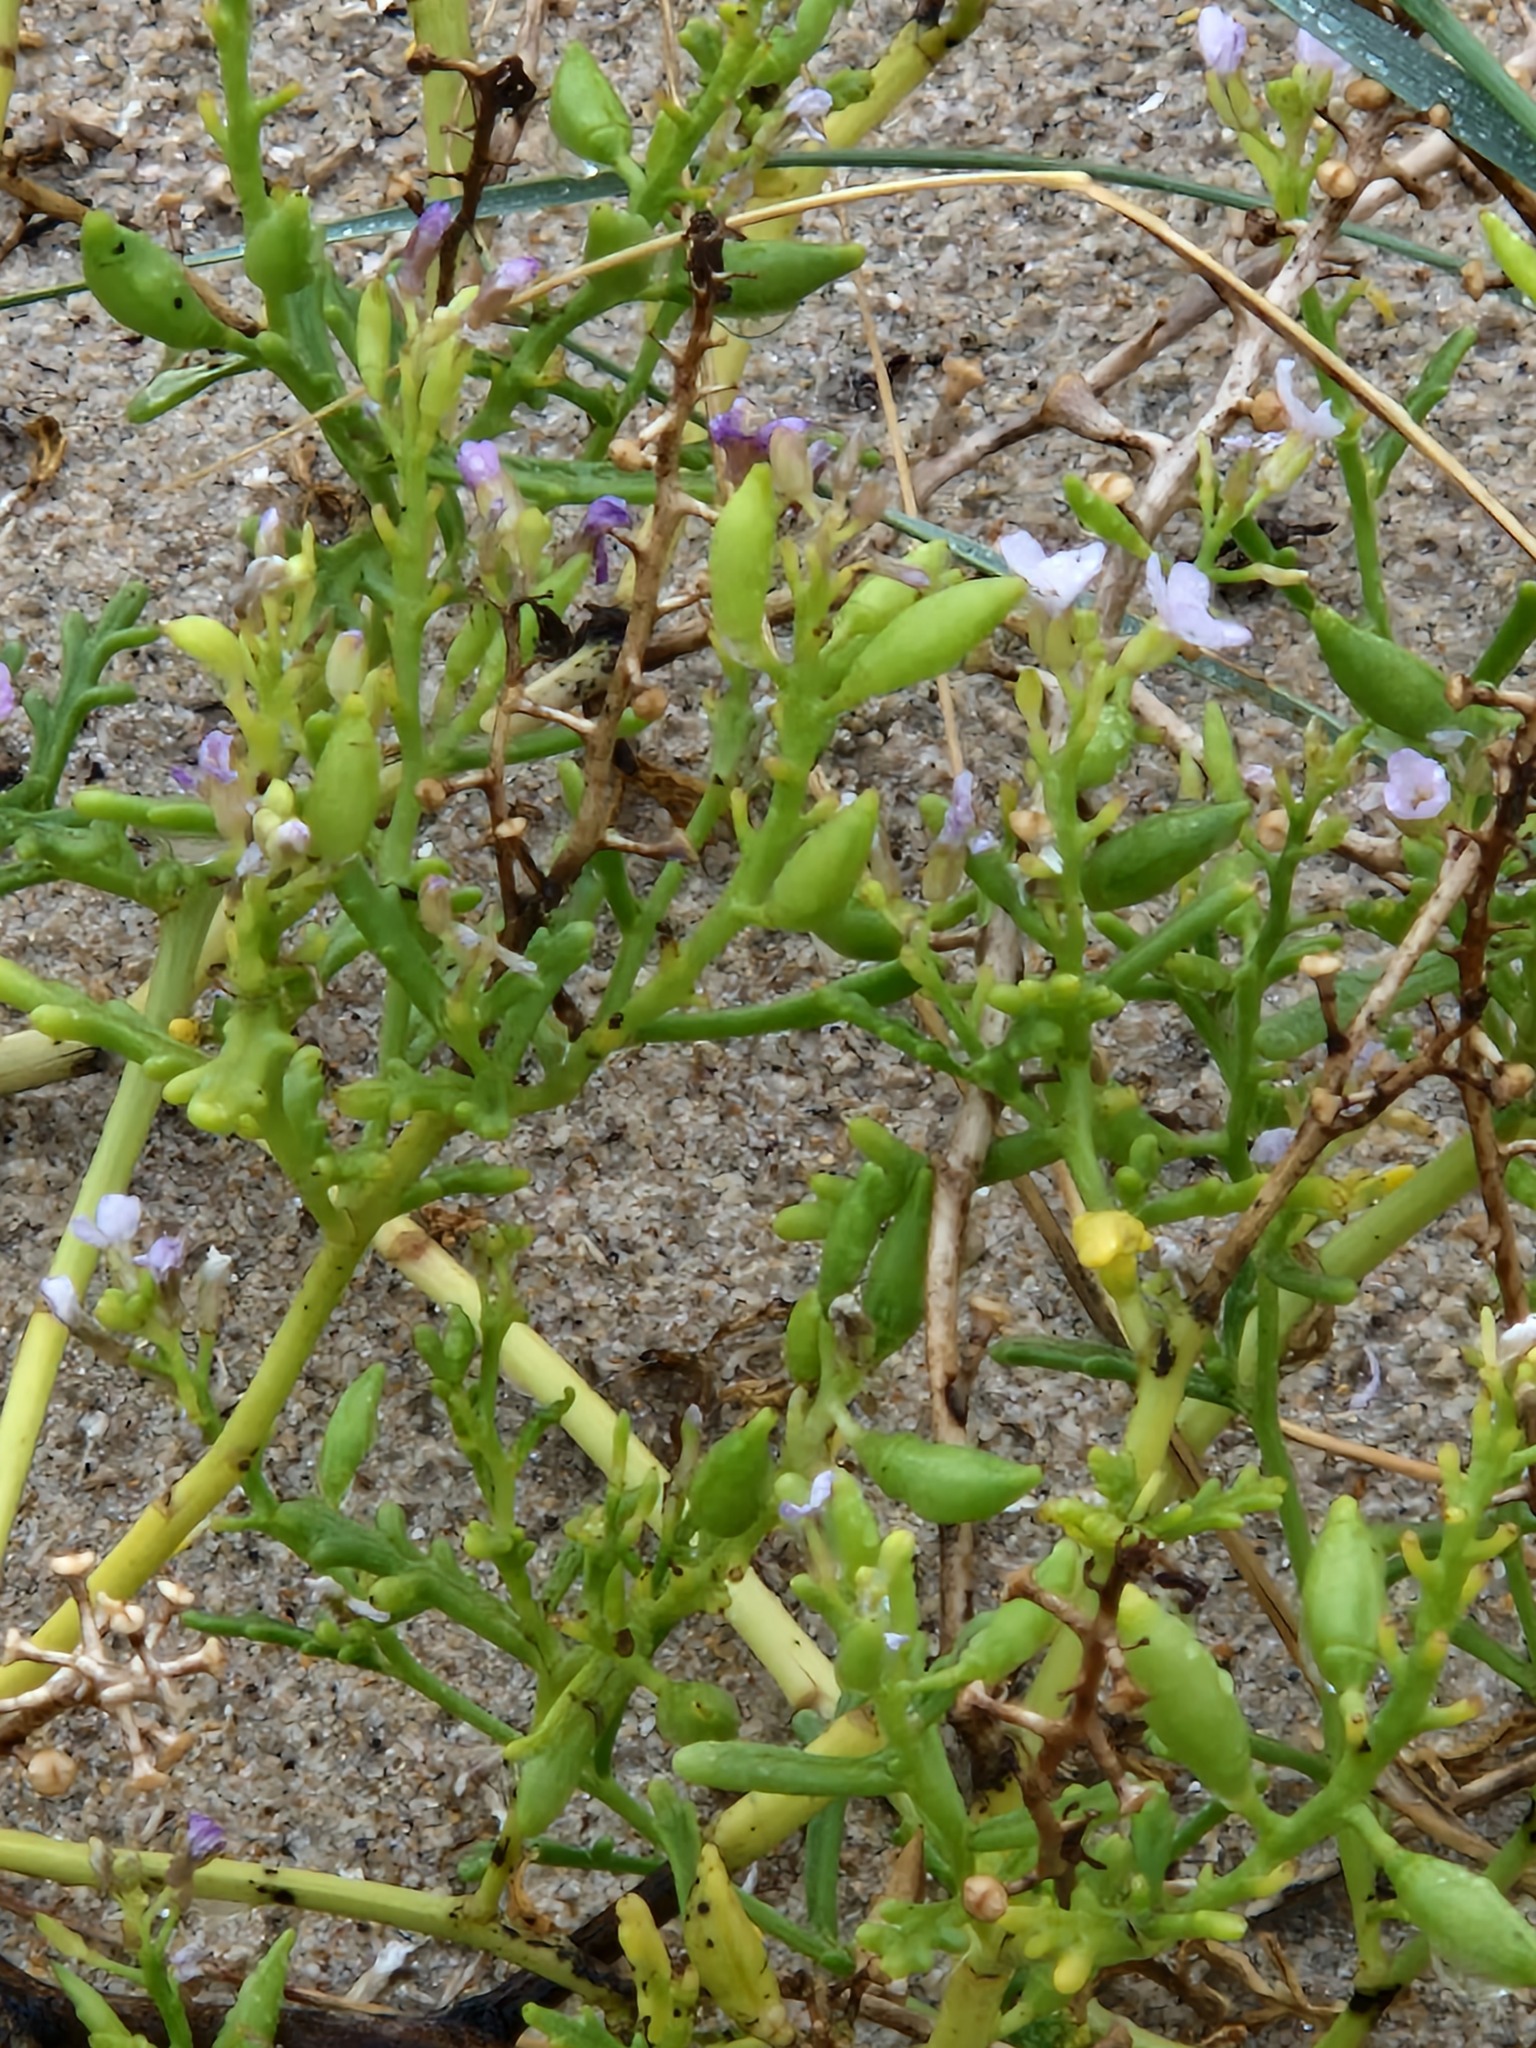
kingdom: Plantae
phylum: Tracheophyta
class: Magnoliopsida
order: Brassicales
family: Brassicaceae
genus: Cakile
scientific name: Cakile maritima
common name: Sea rocket
